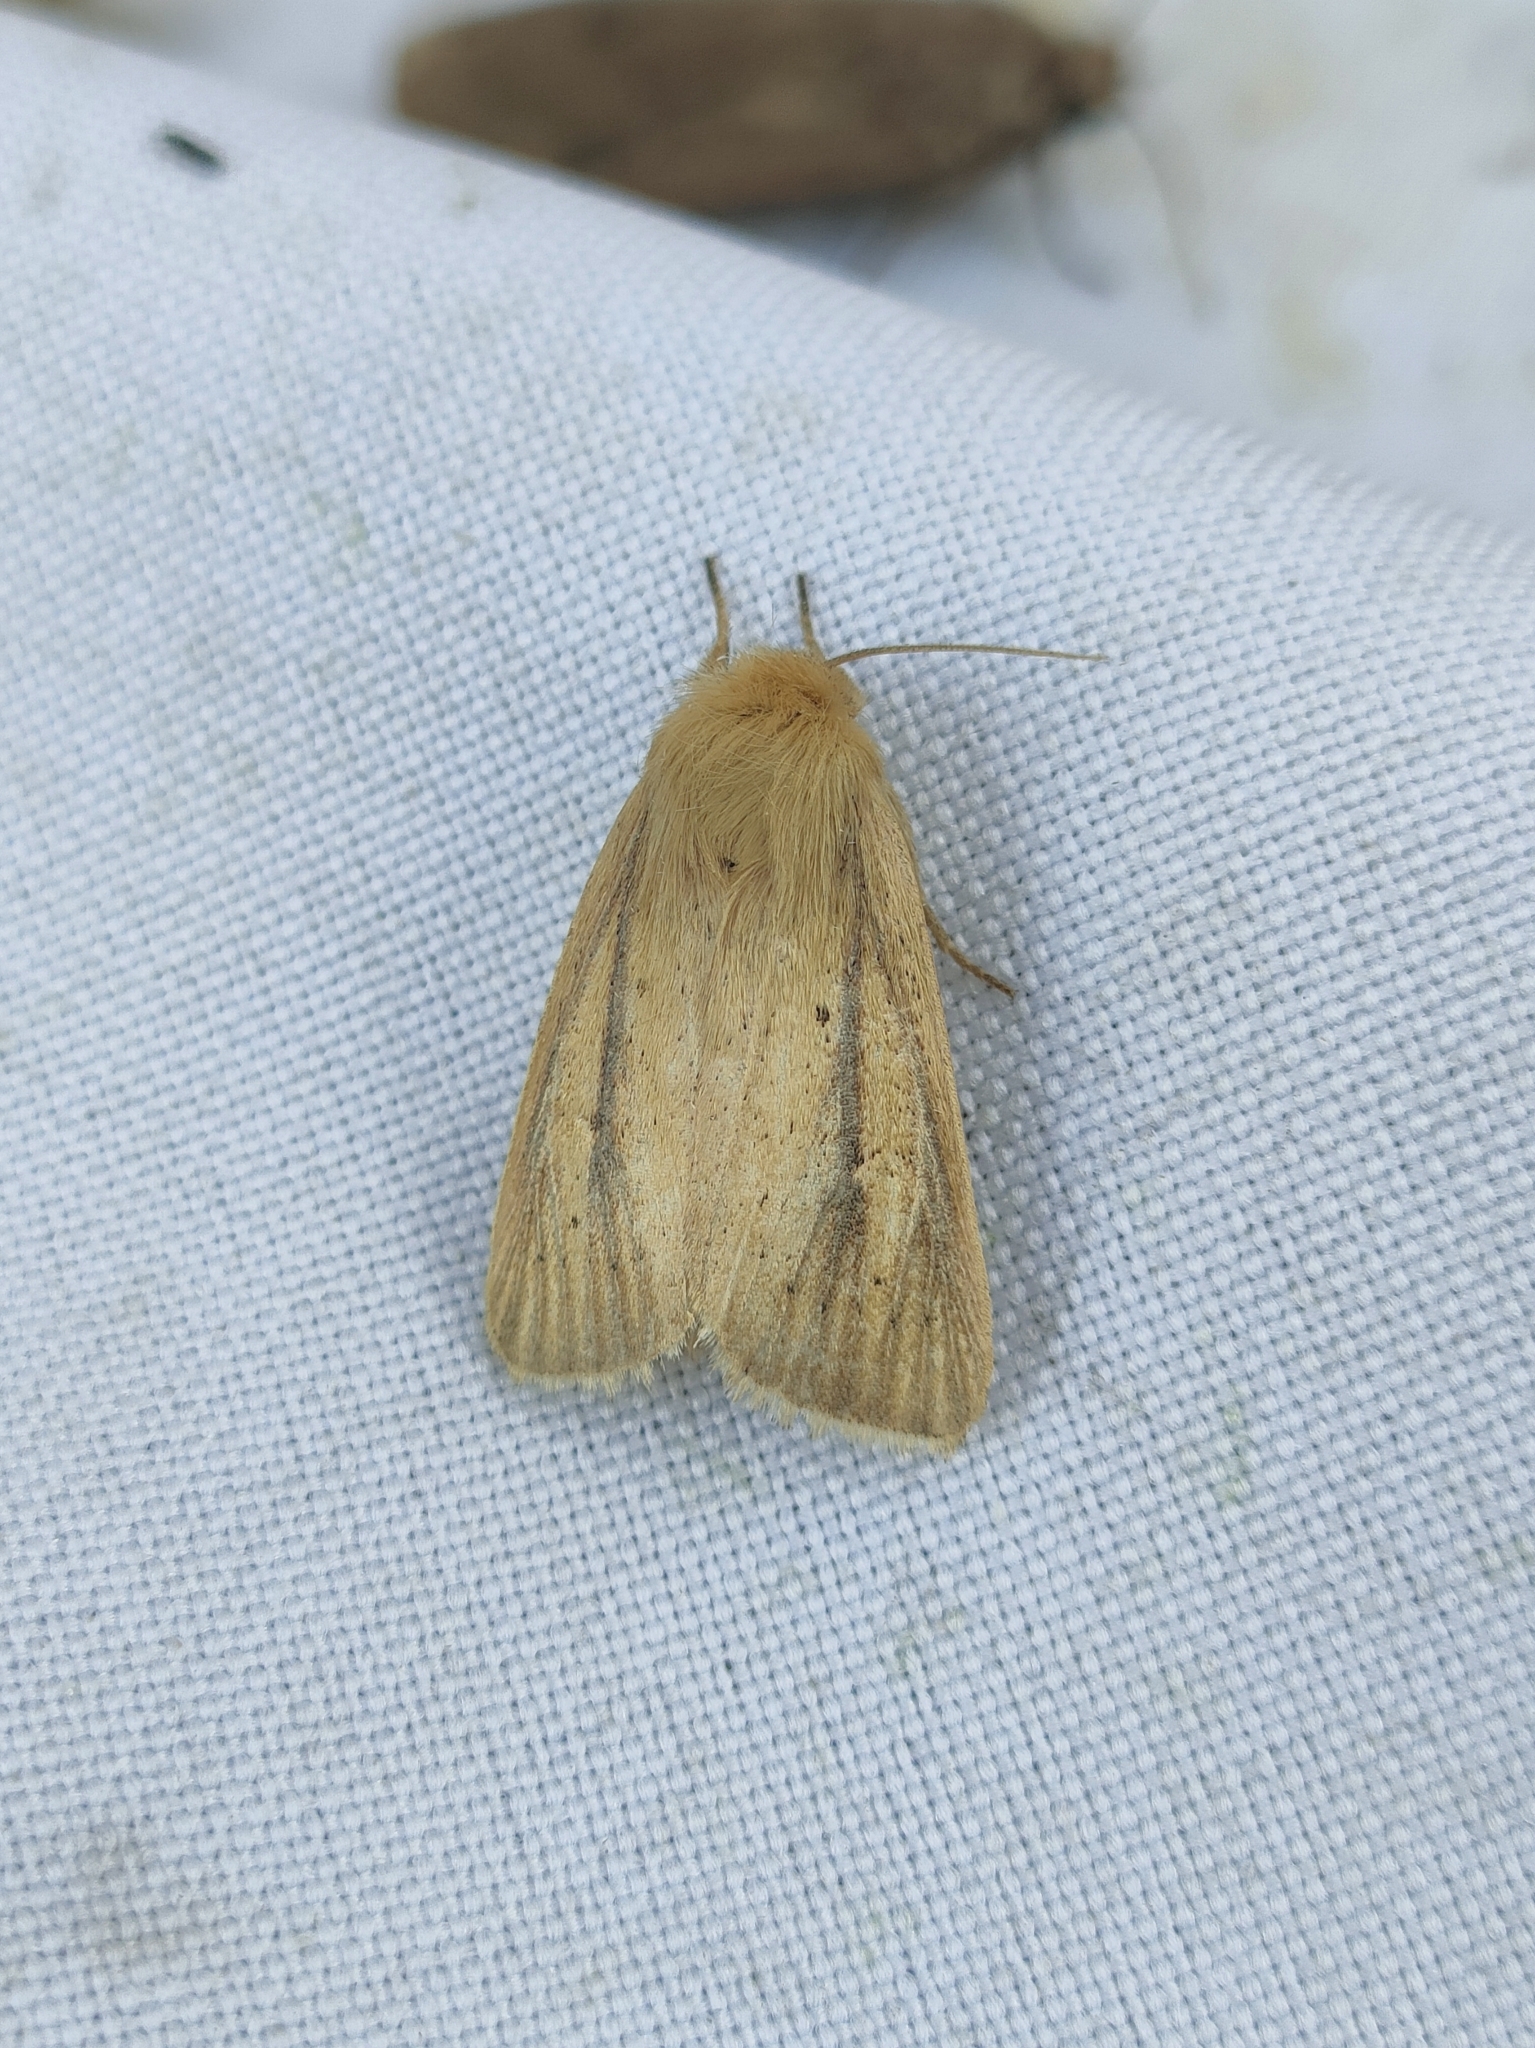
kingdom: Animalia
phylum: Arthropoda
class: Insecta
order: Lepidoptera
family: Noctuidae
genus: Sesamia
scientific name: Sesamia nonagrioides
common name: Pink stem borer
